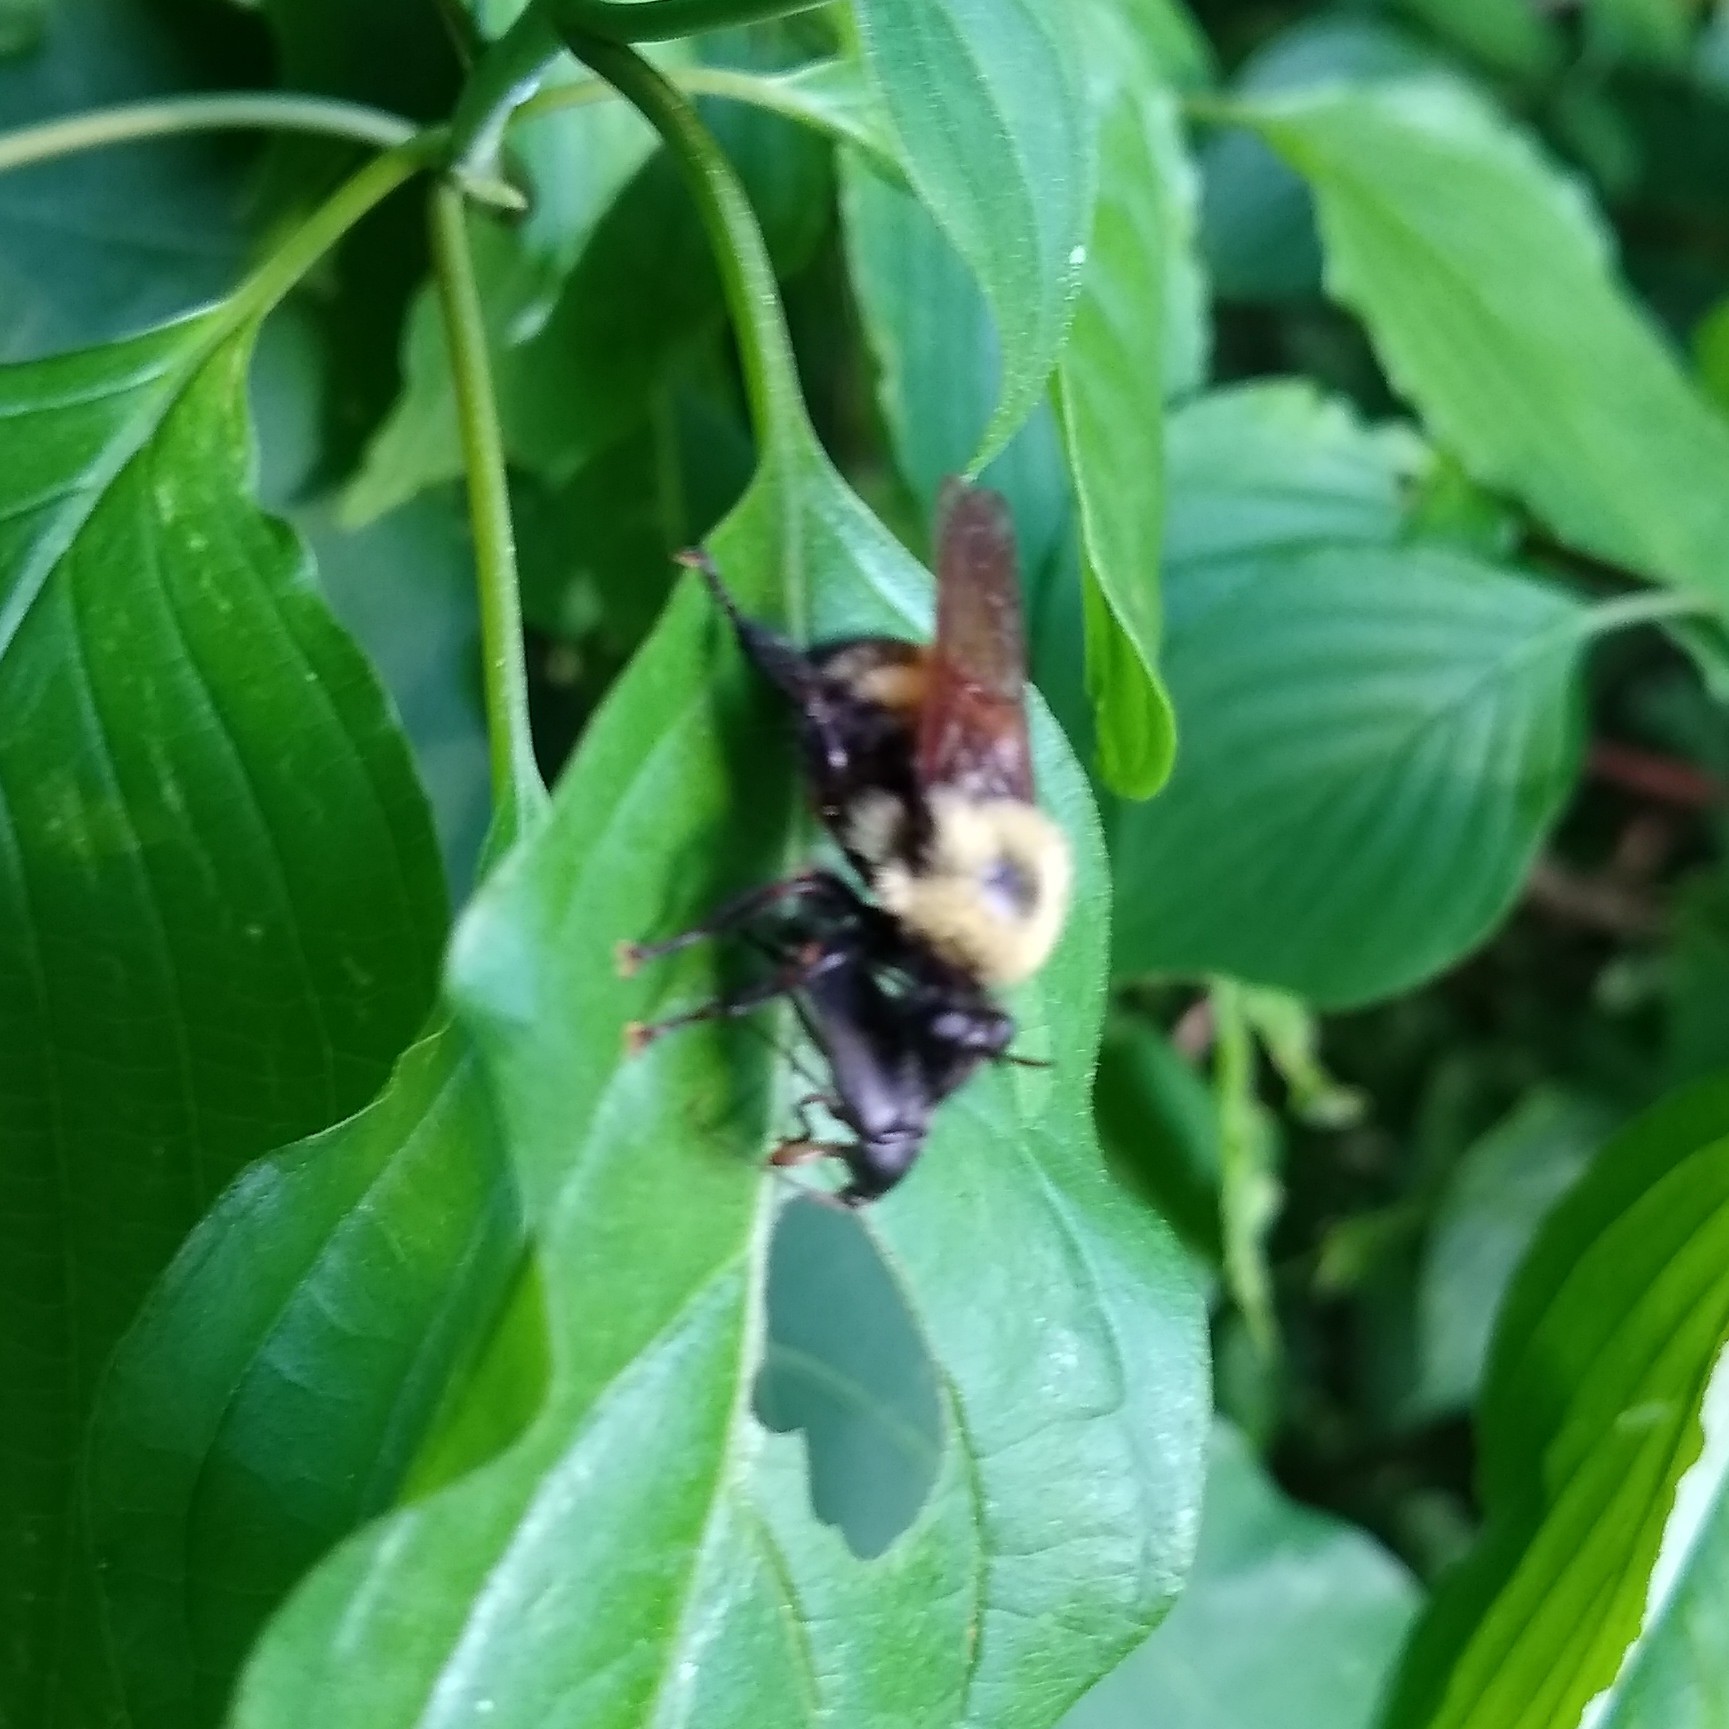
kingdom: Animalia
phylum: Arthropoda
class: Insecta
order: Diptera
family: Asilidae
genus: Laphria
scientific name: Laphria thoracica
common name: Bumble bee mimic robber fly
